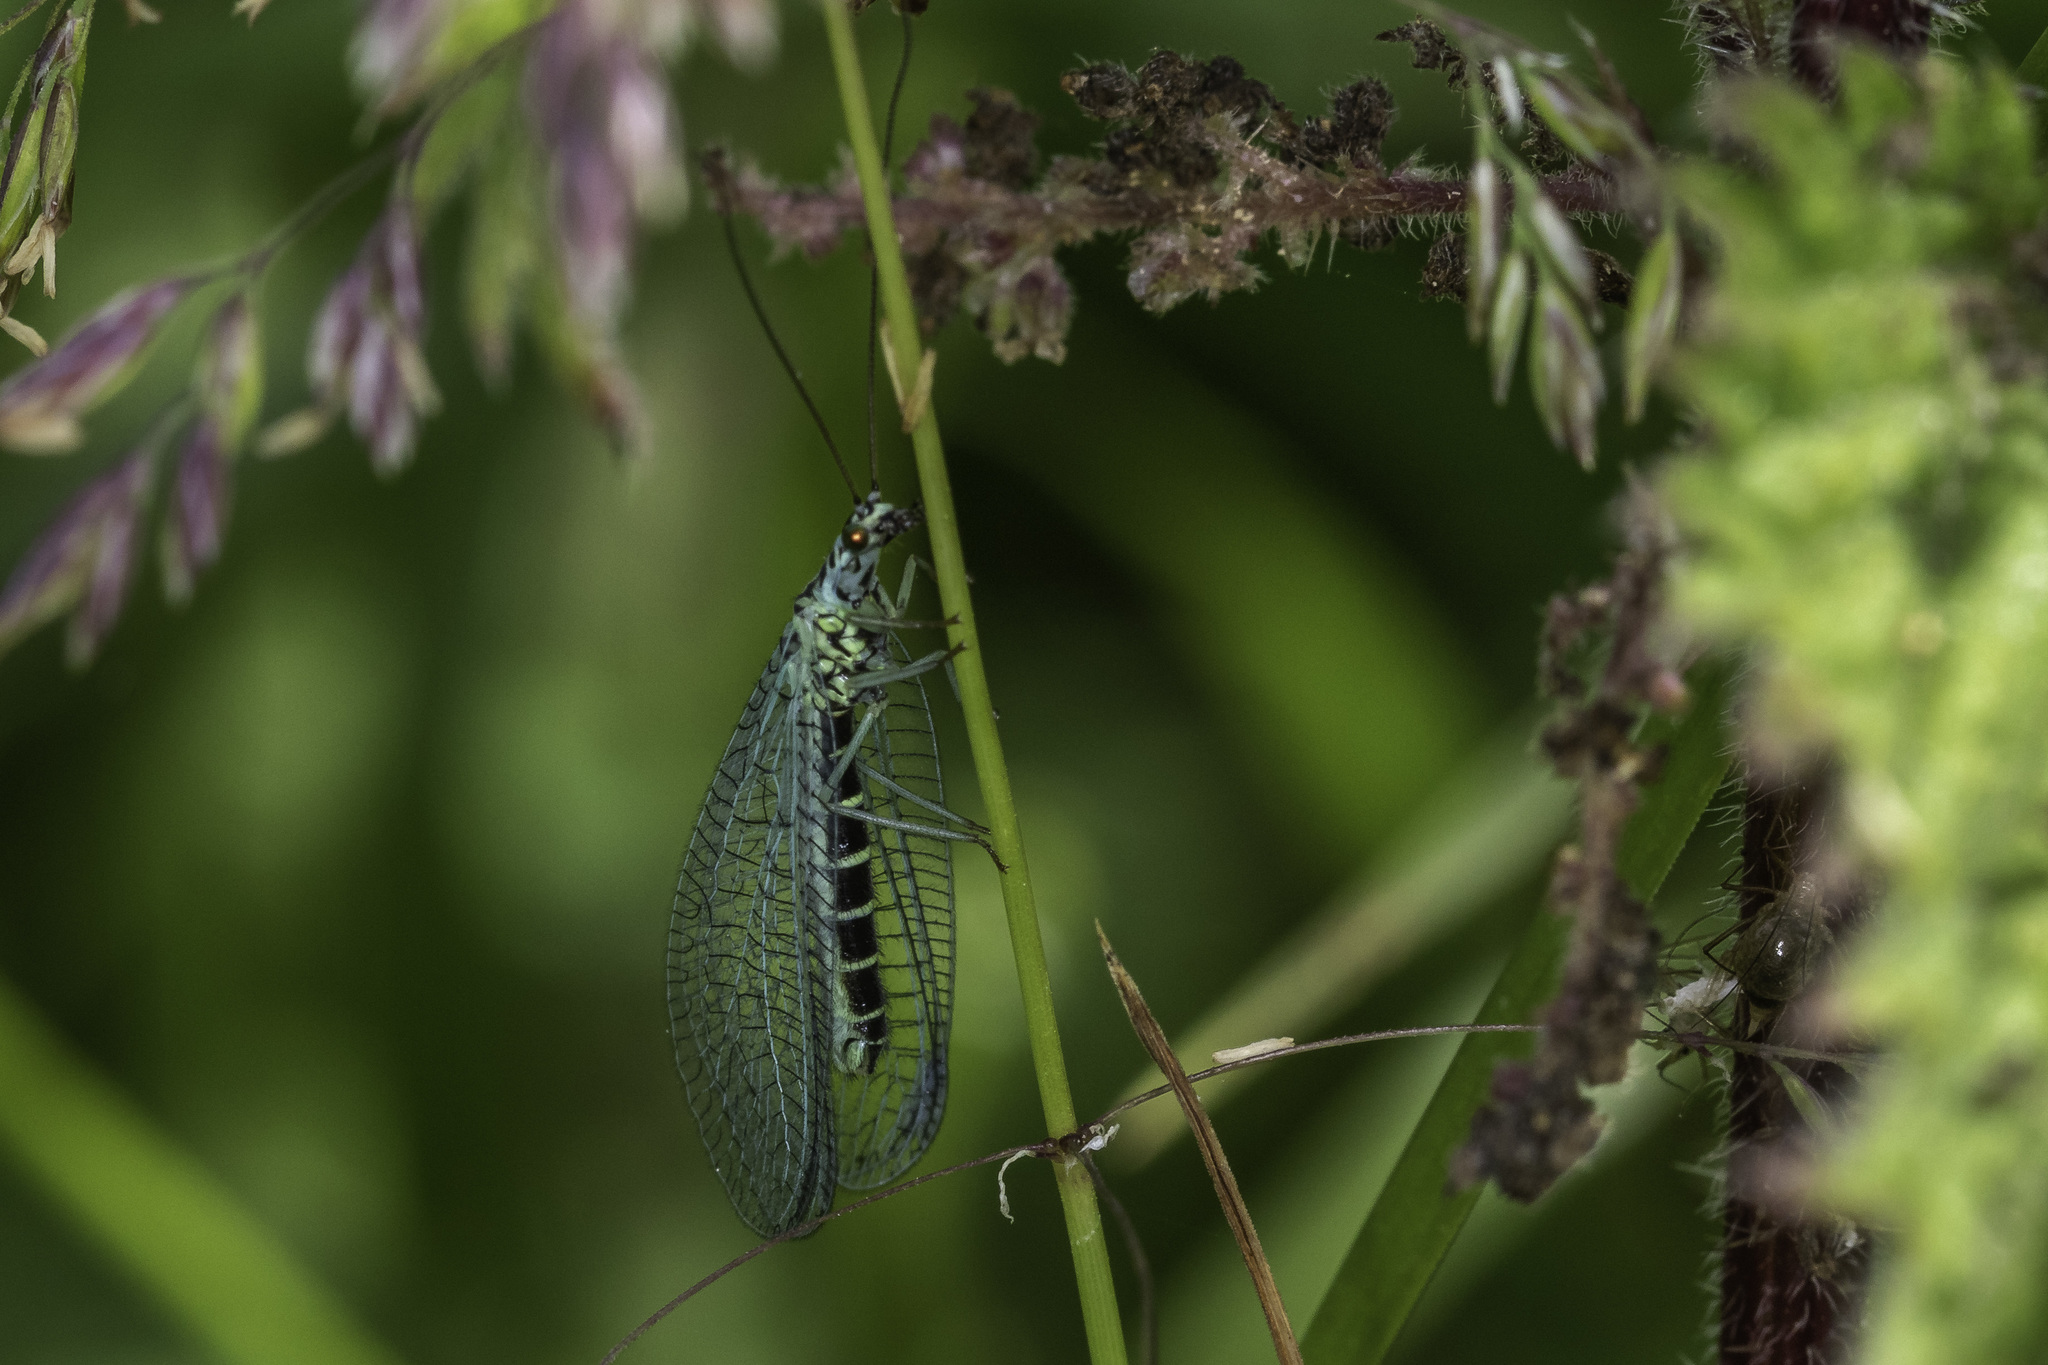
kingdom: Animalia
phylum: Arthropoda
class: Insecta
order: Neuroptera
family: Chrysopidae
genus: Chrysopa
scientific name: Chrysopa perla
